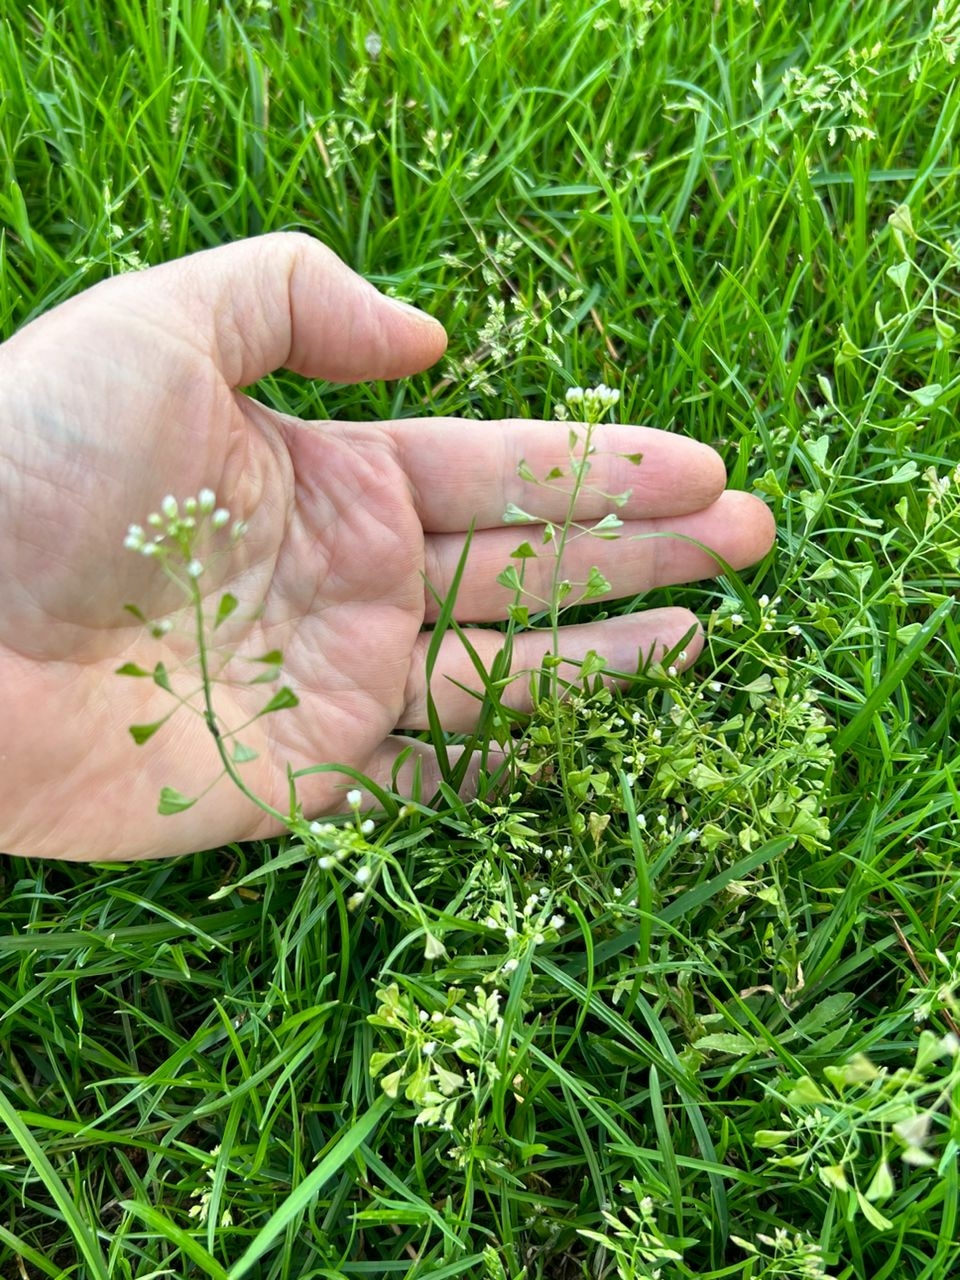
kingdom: Plantae
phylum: Tracheophyta
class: Magnoliopsida
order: Brassicales
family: Brassicaceae
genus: Capsella
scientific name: Capsella bursa-pastoris
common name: Shepherd's purse
